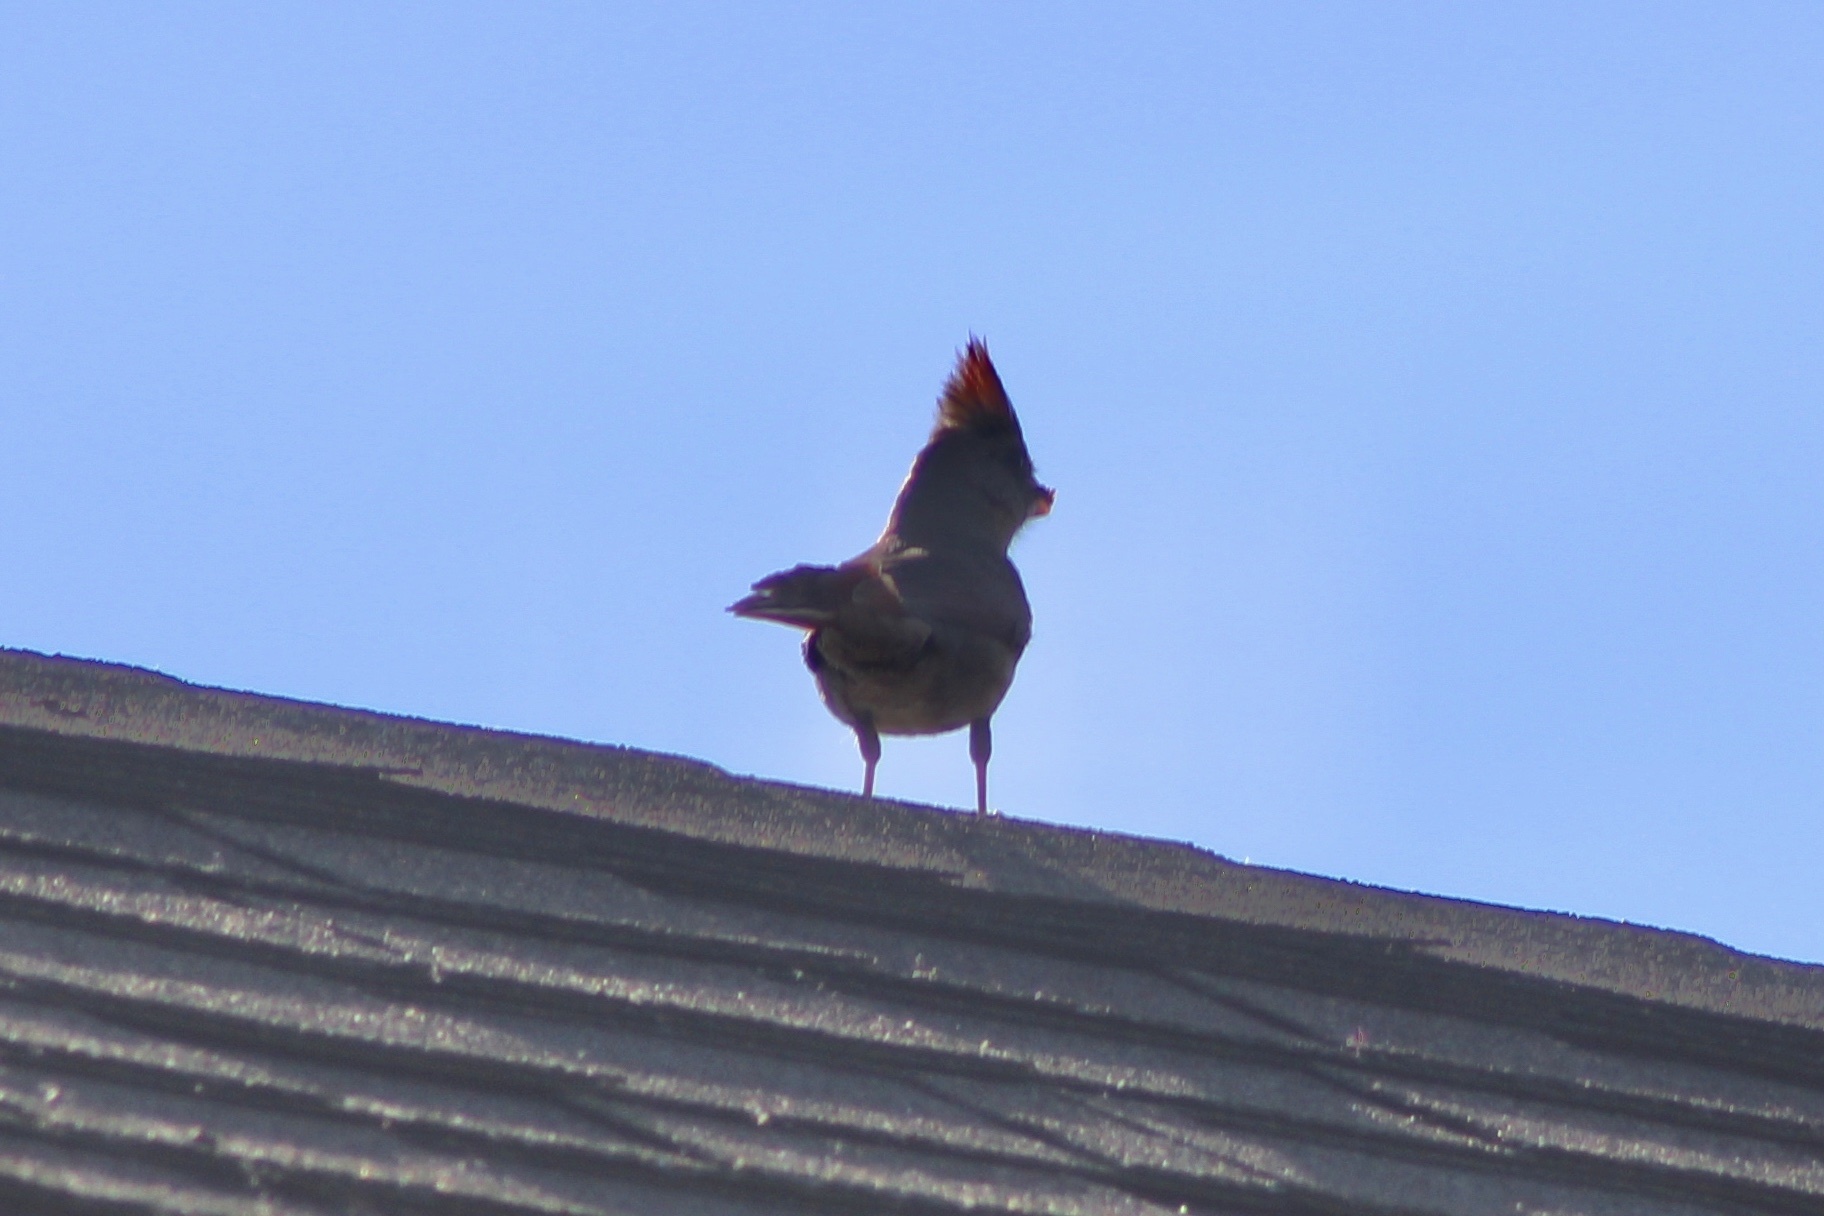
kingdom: Animalia
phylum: Chordata
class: Aves
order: Passeriformes
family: Cardinalidae
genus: Cardinalis
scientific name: Cardinalis cardinalis
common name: Northern cardinal
